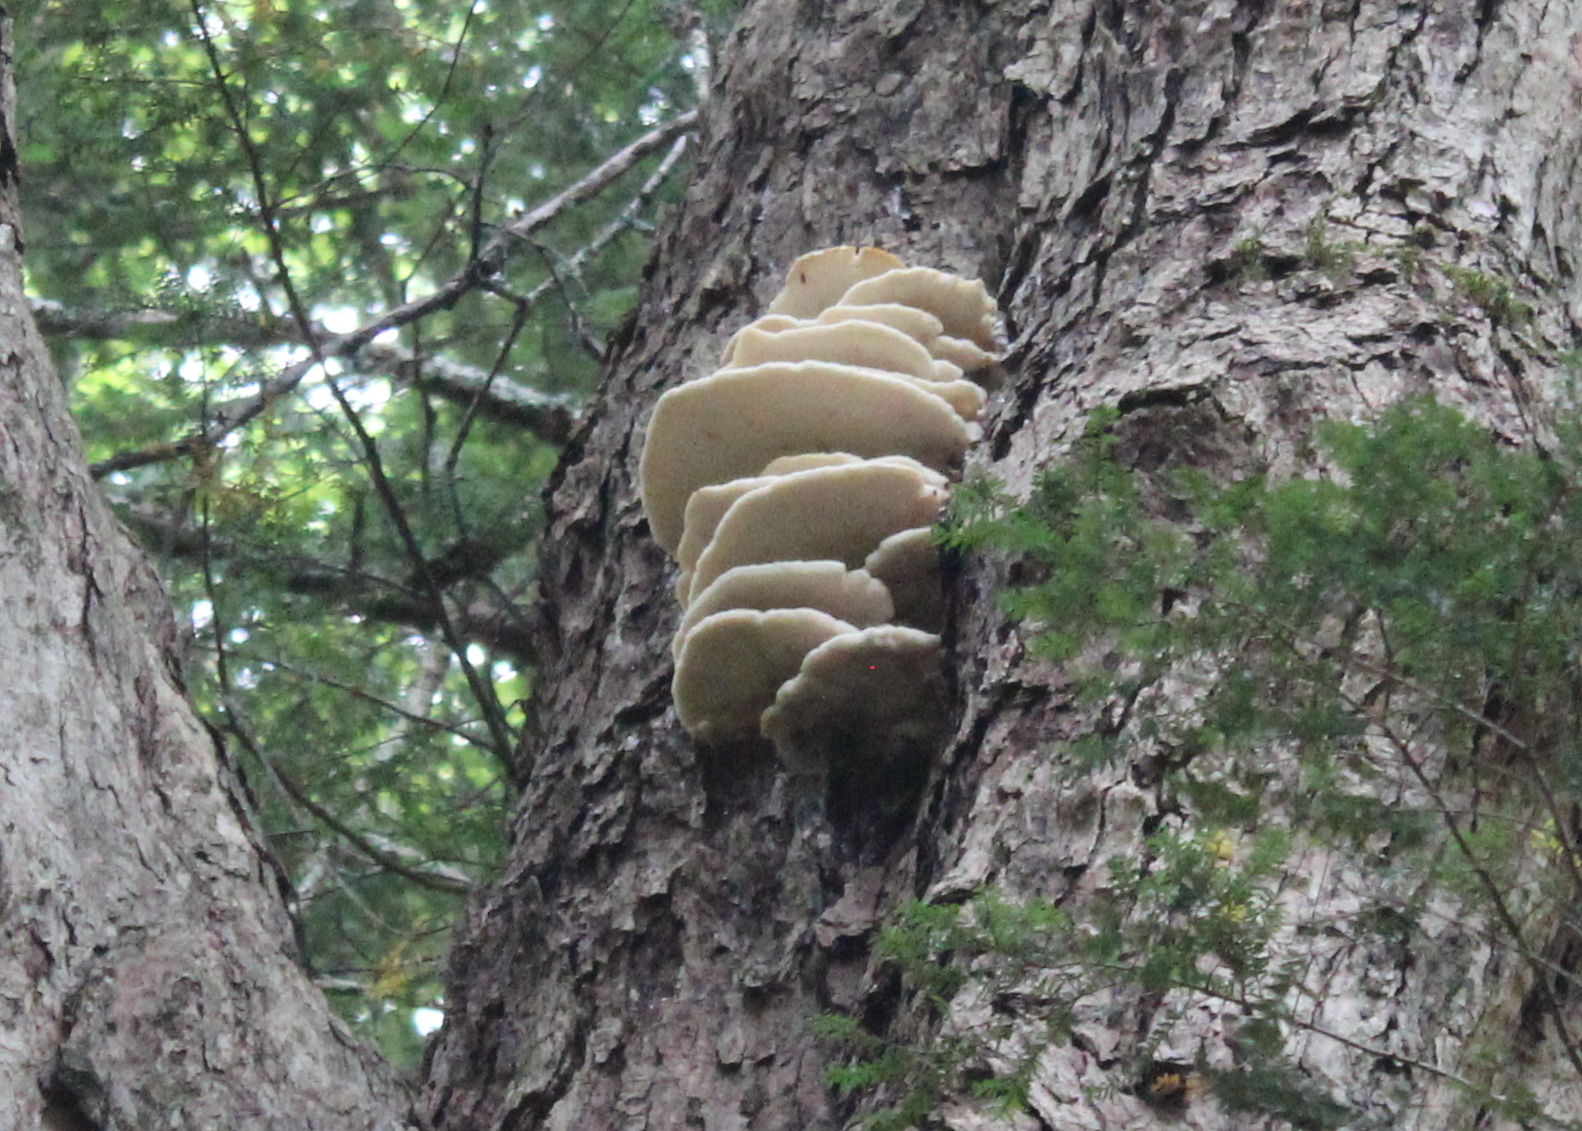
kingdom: Fungi
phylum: Basidiomycota
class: Agaricomycetes
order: Polyporales
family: Meruliaceae
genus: Climacodon
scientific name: Climacodon septentrionalis
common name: Northern tooth
